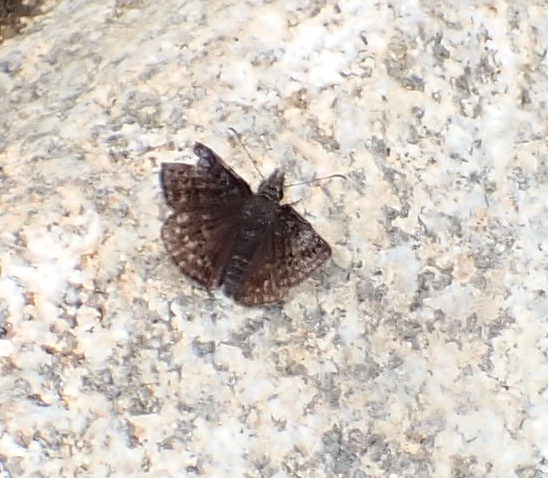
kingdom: Animalia
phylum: Arthropoda
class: Insecta
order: Lepidoptera
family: Hesperiidae
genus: Erynnis
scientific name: Erynnis icelus
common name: Dreamy duskywing
